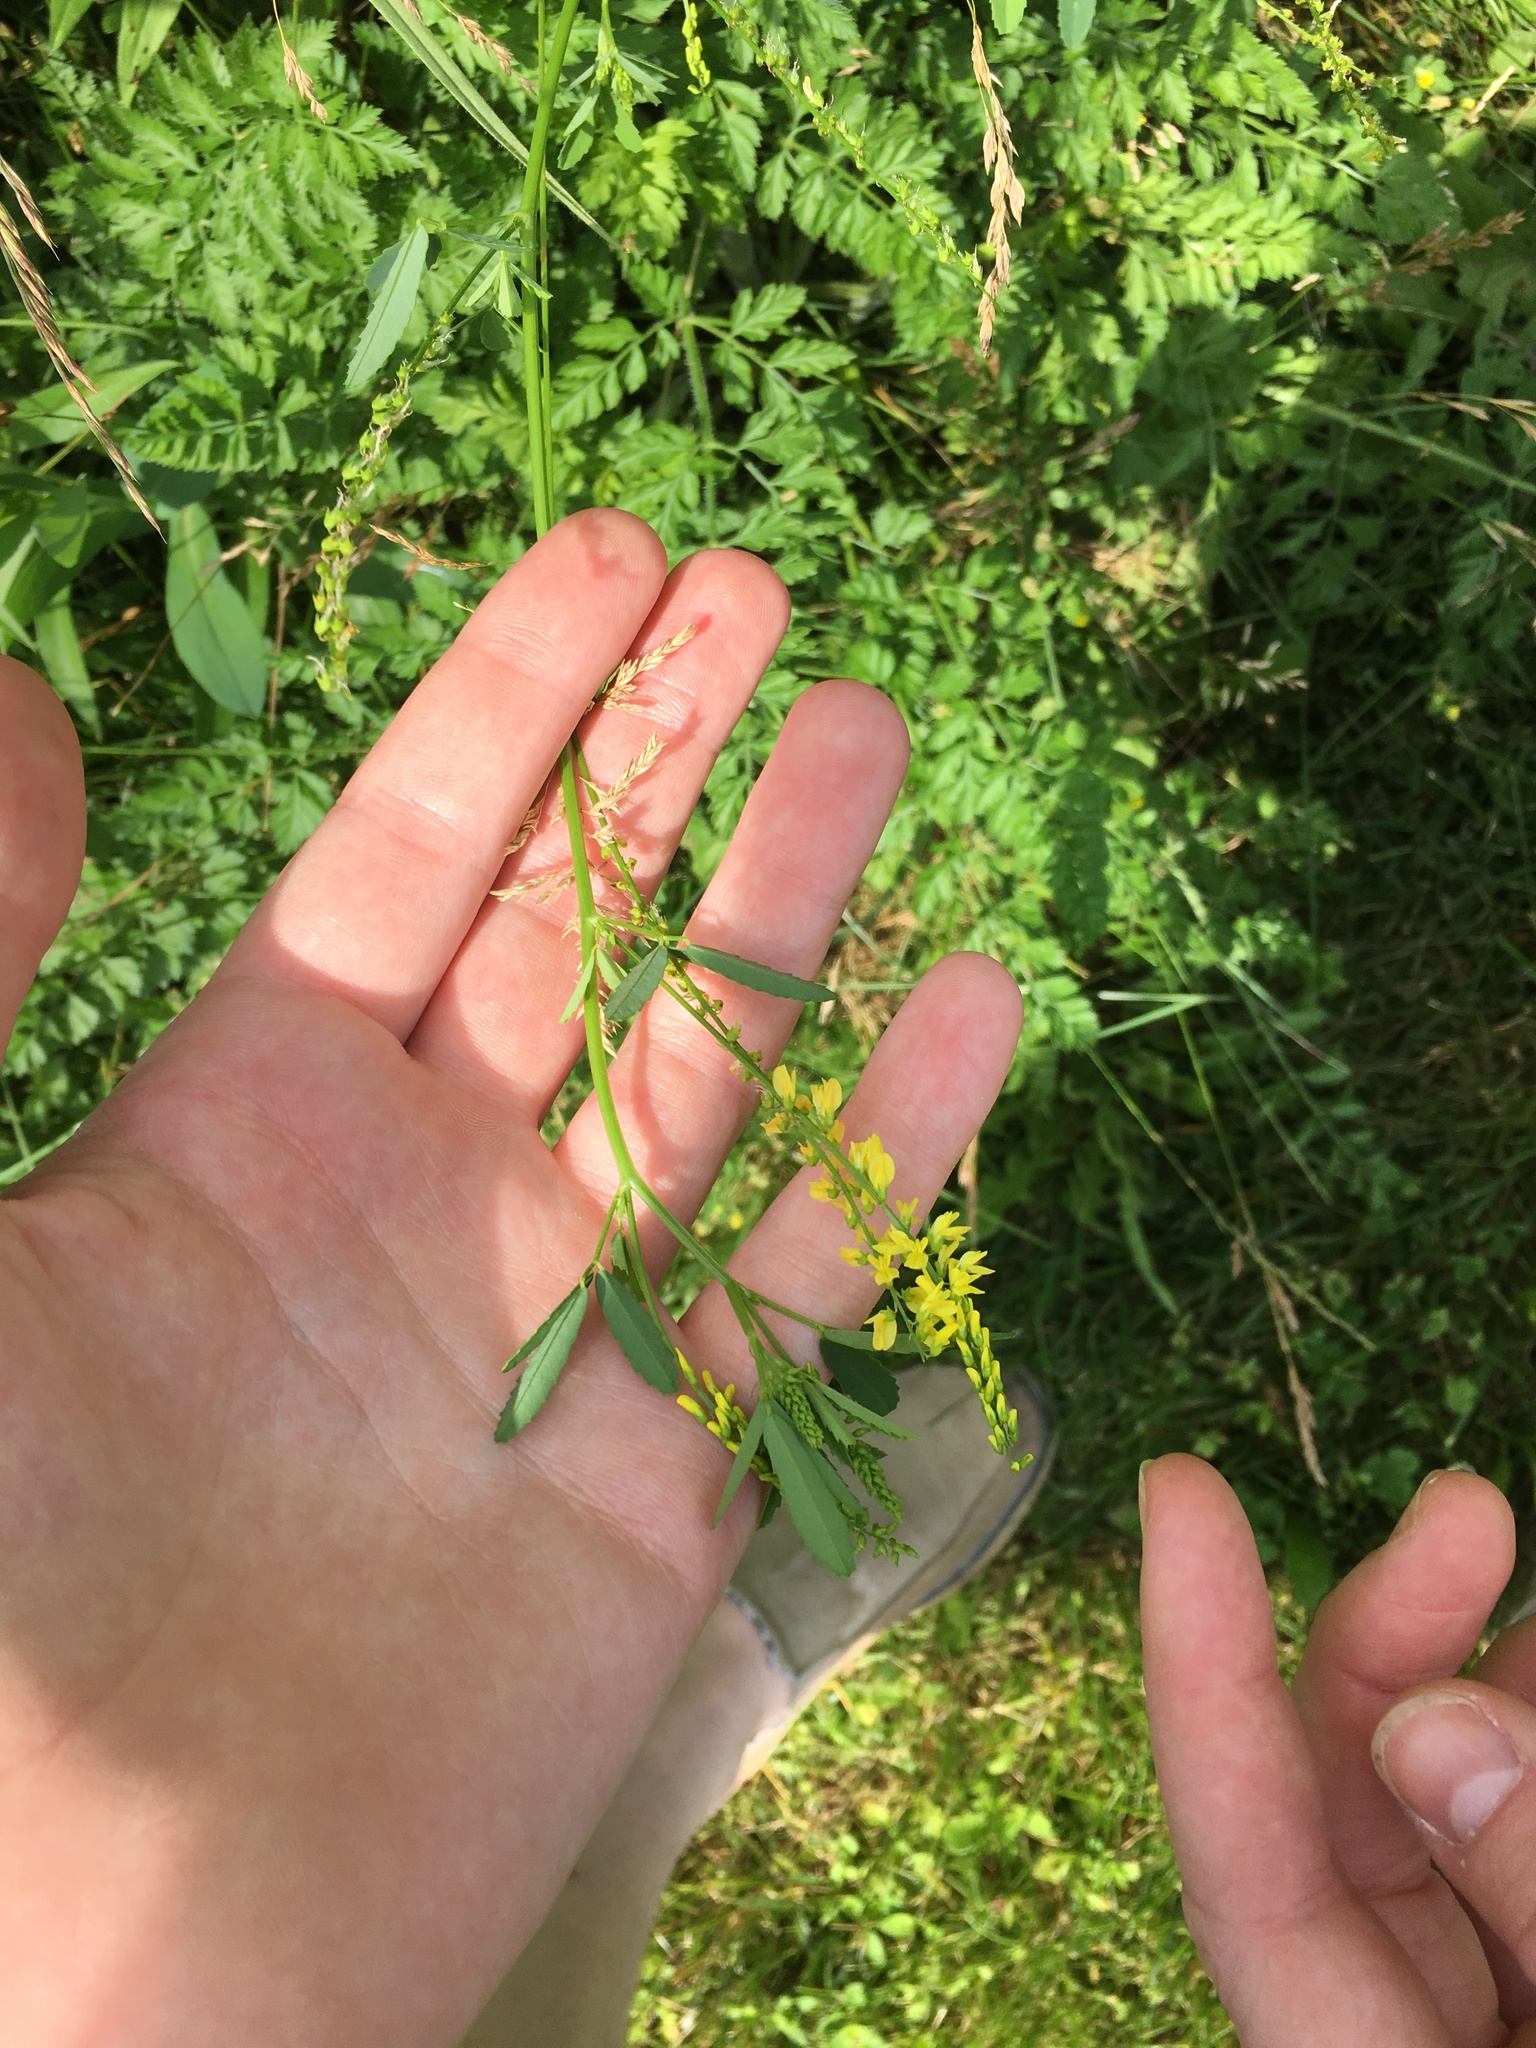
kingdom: Plantae
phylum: Tracheophyta
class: Magnoliopsida
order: Fabales
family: Fabaceae
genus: Melilotus
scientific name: Melilotus officinalis
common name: Sweetclover
